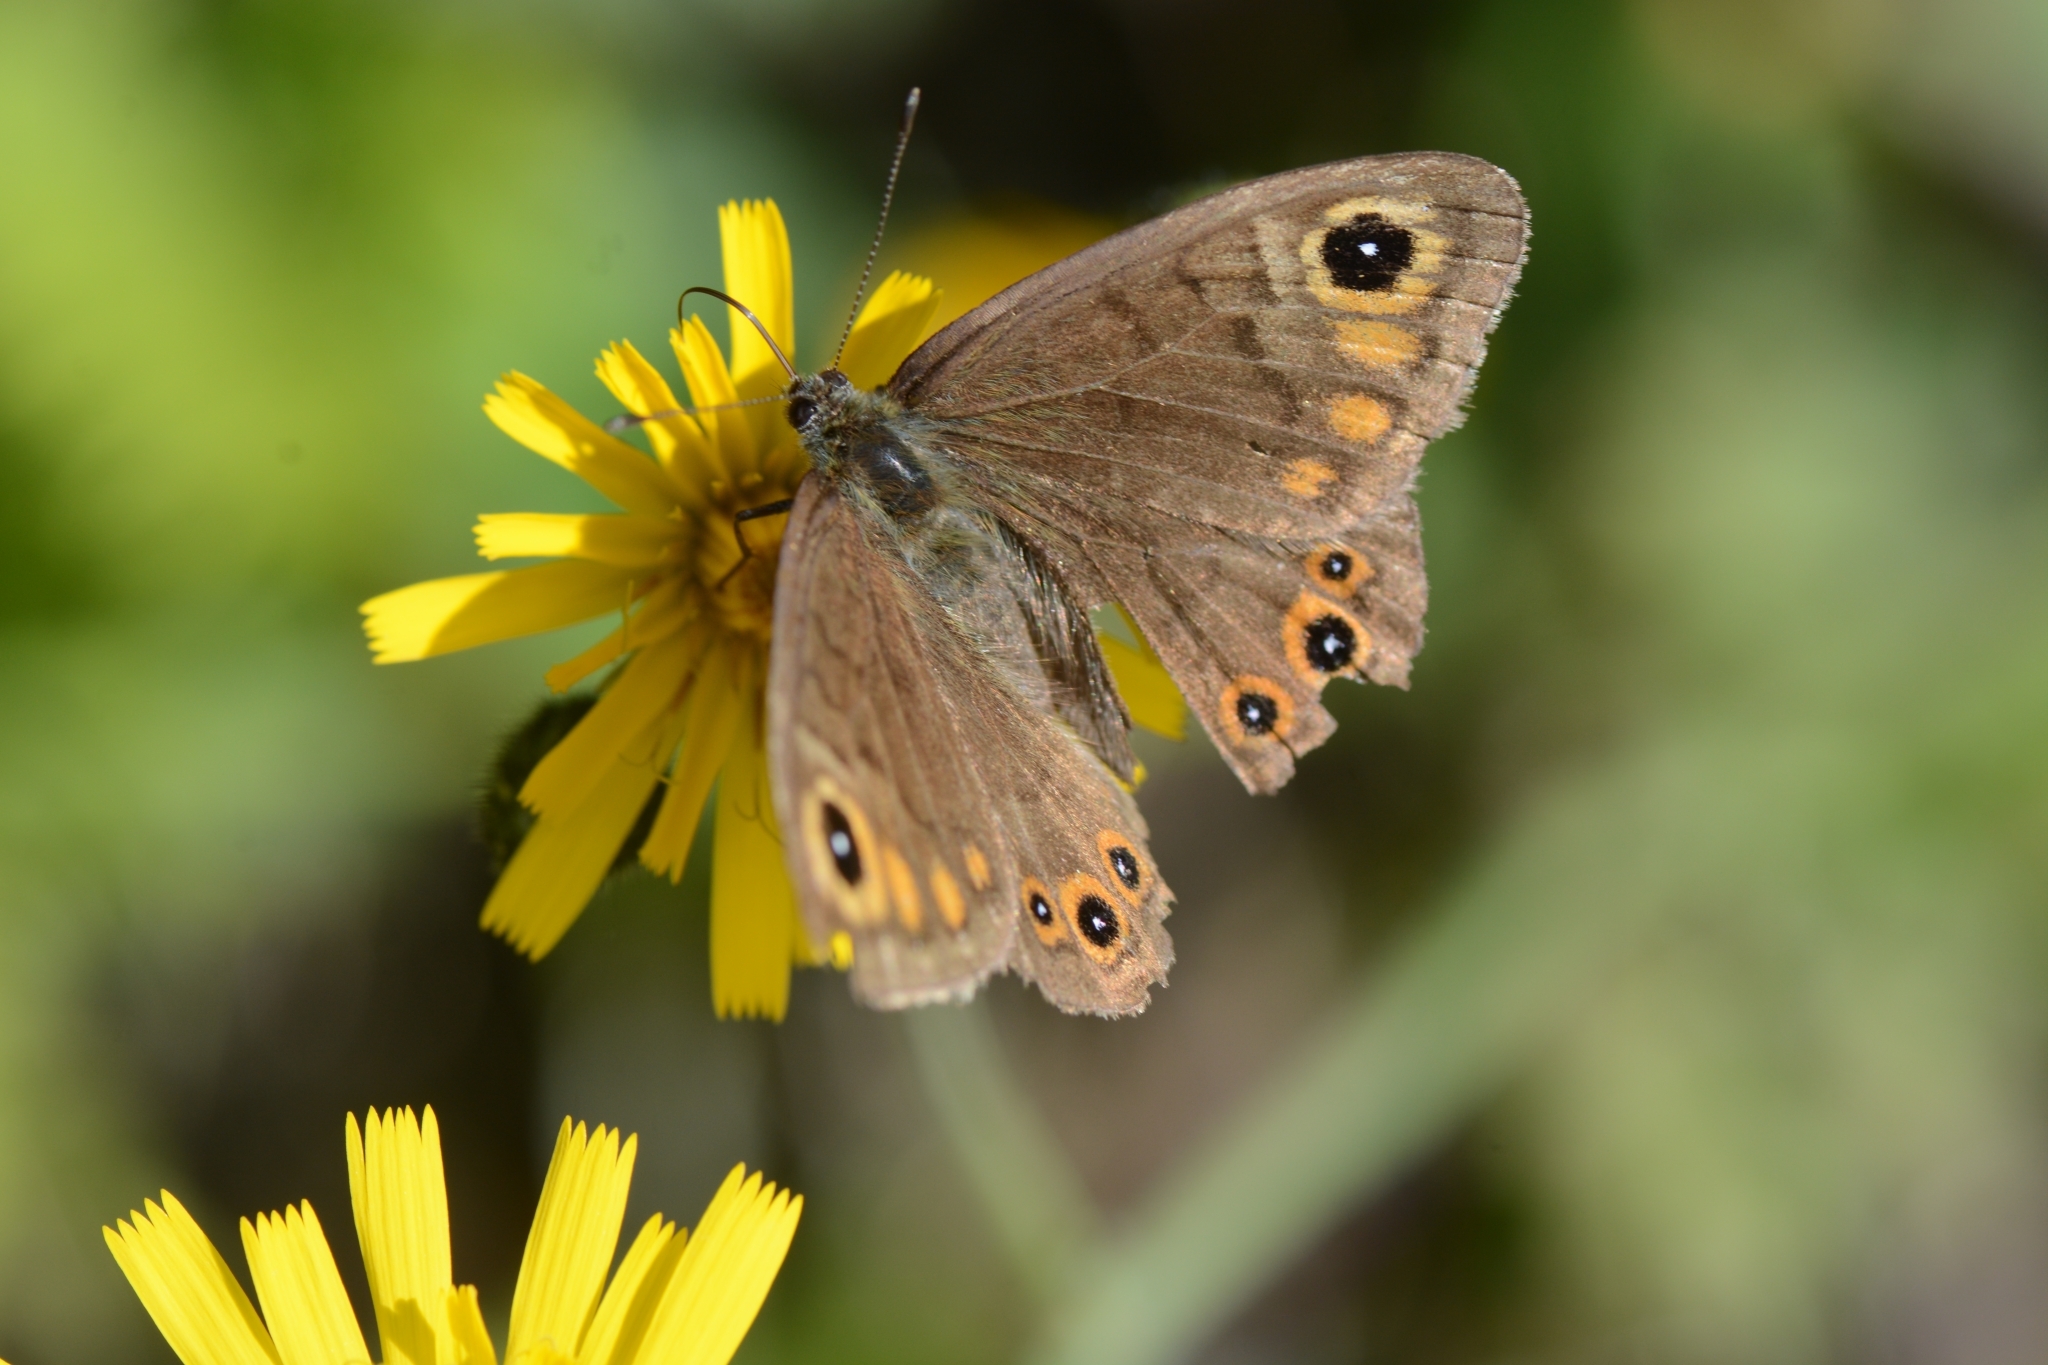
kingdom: Animalia
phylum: Arthropoda
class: Insecta
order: Lepidoptera
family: Nymphalidae
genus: Pararge
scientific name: Pararge petropolitana
